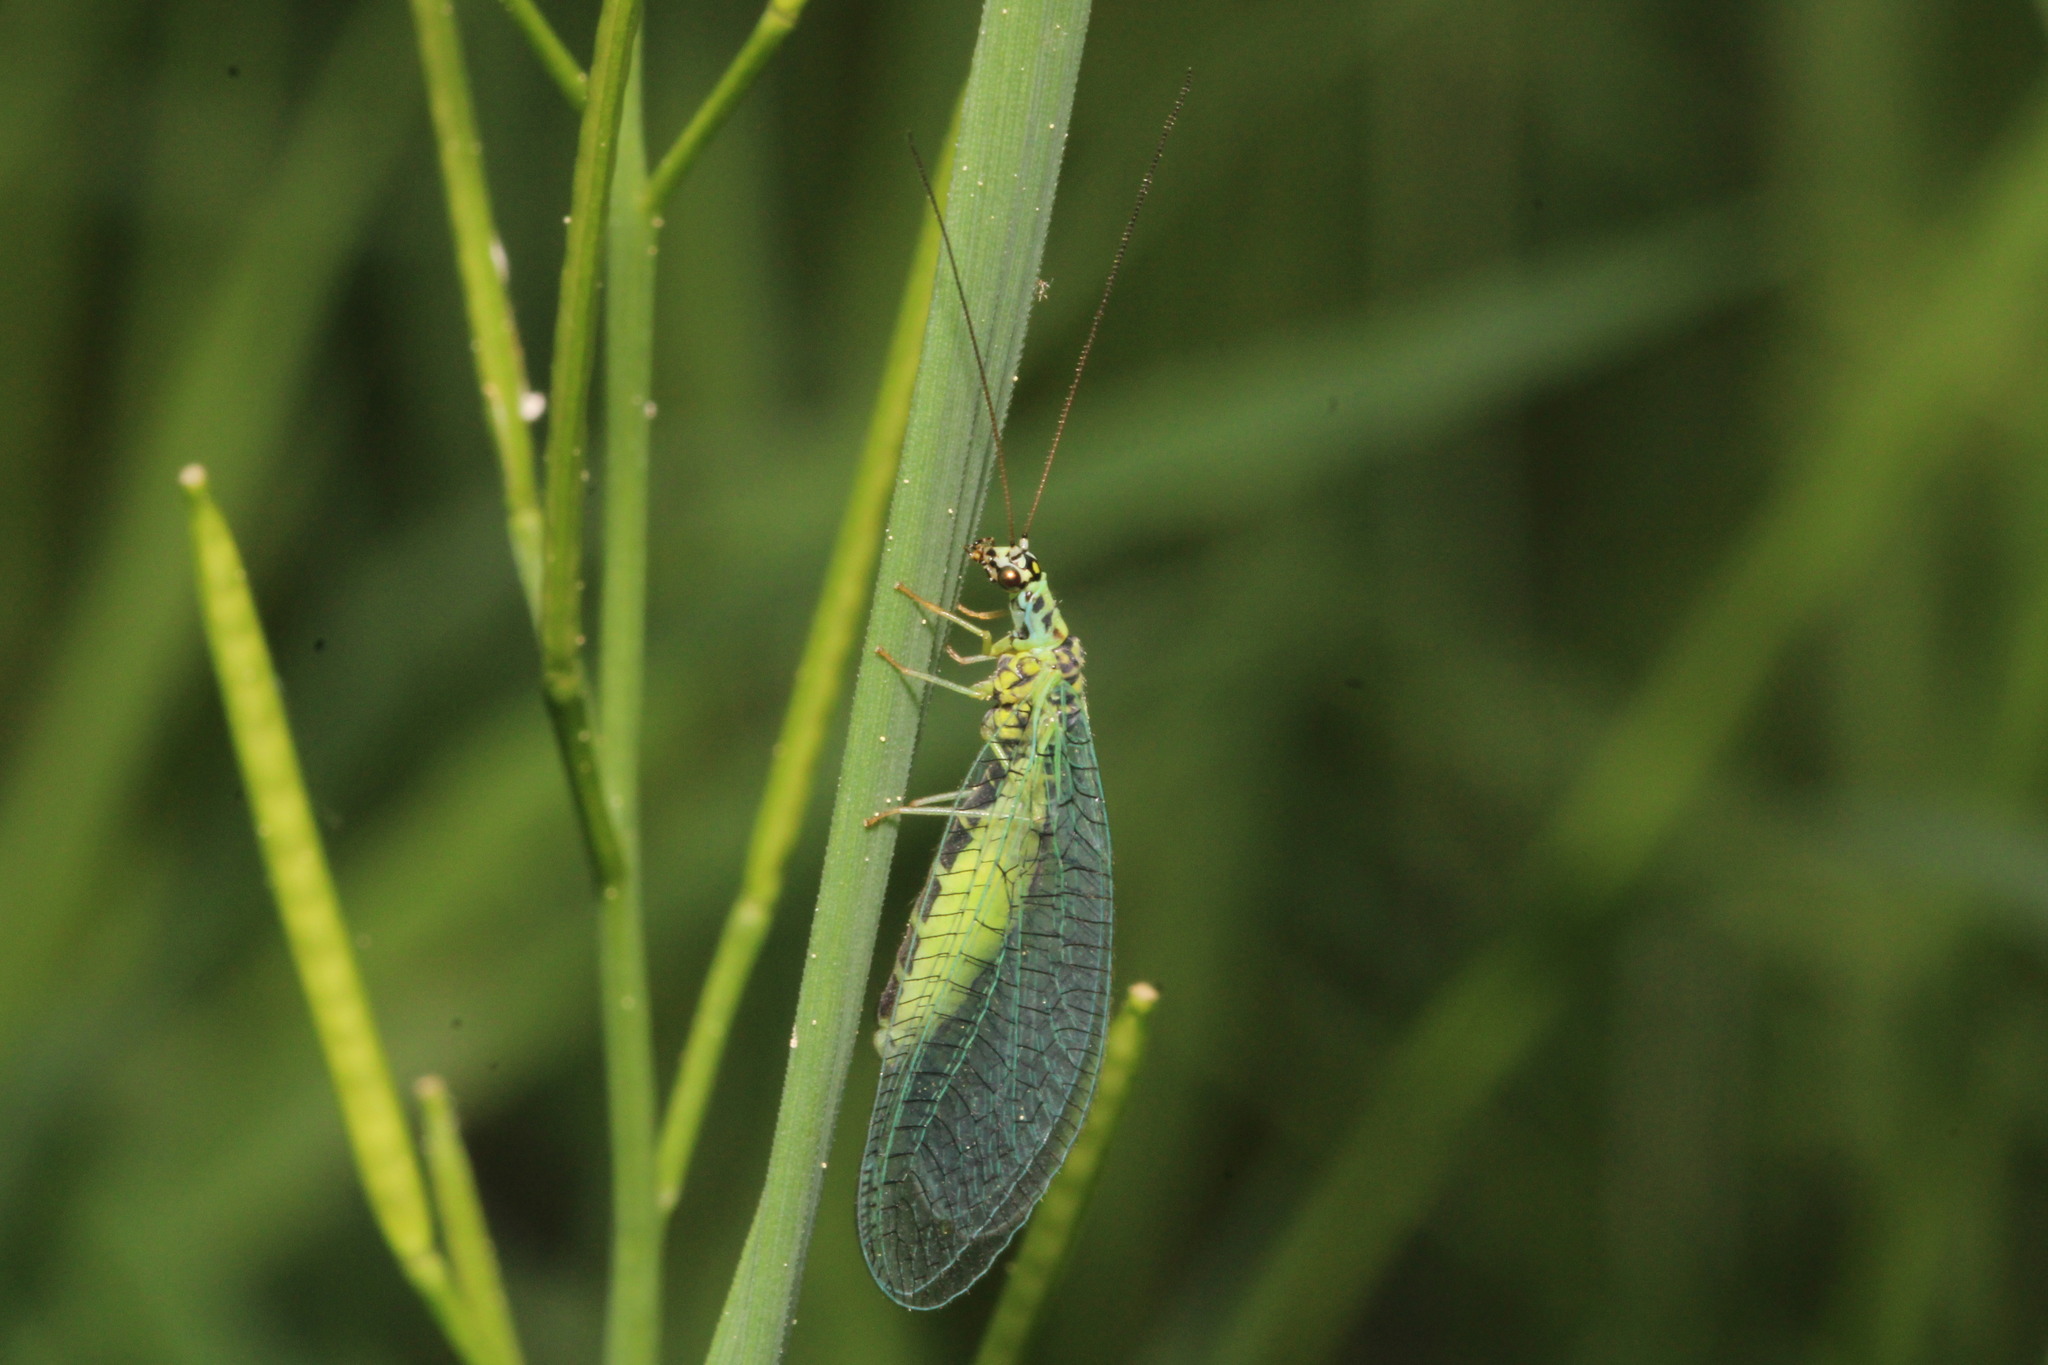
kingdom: Animalia
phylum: Arthropoda
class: Insecta
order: Neuroptera
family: Chrysopidae
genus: Chrysopa
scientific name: Chrysopa perla
